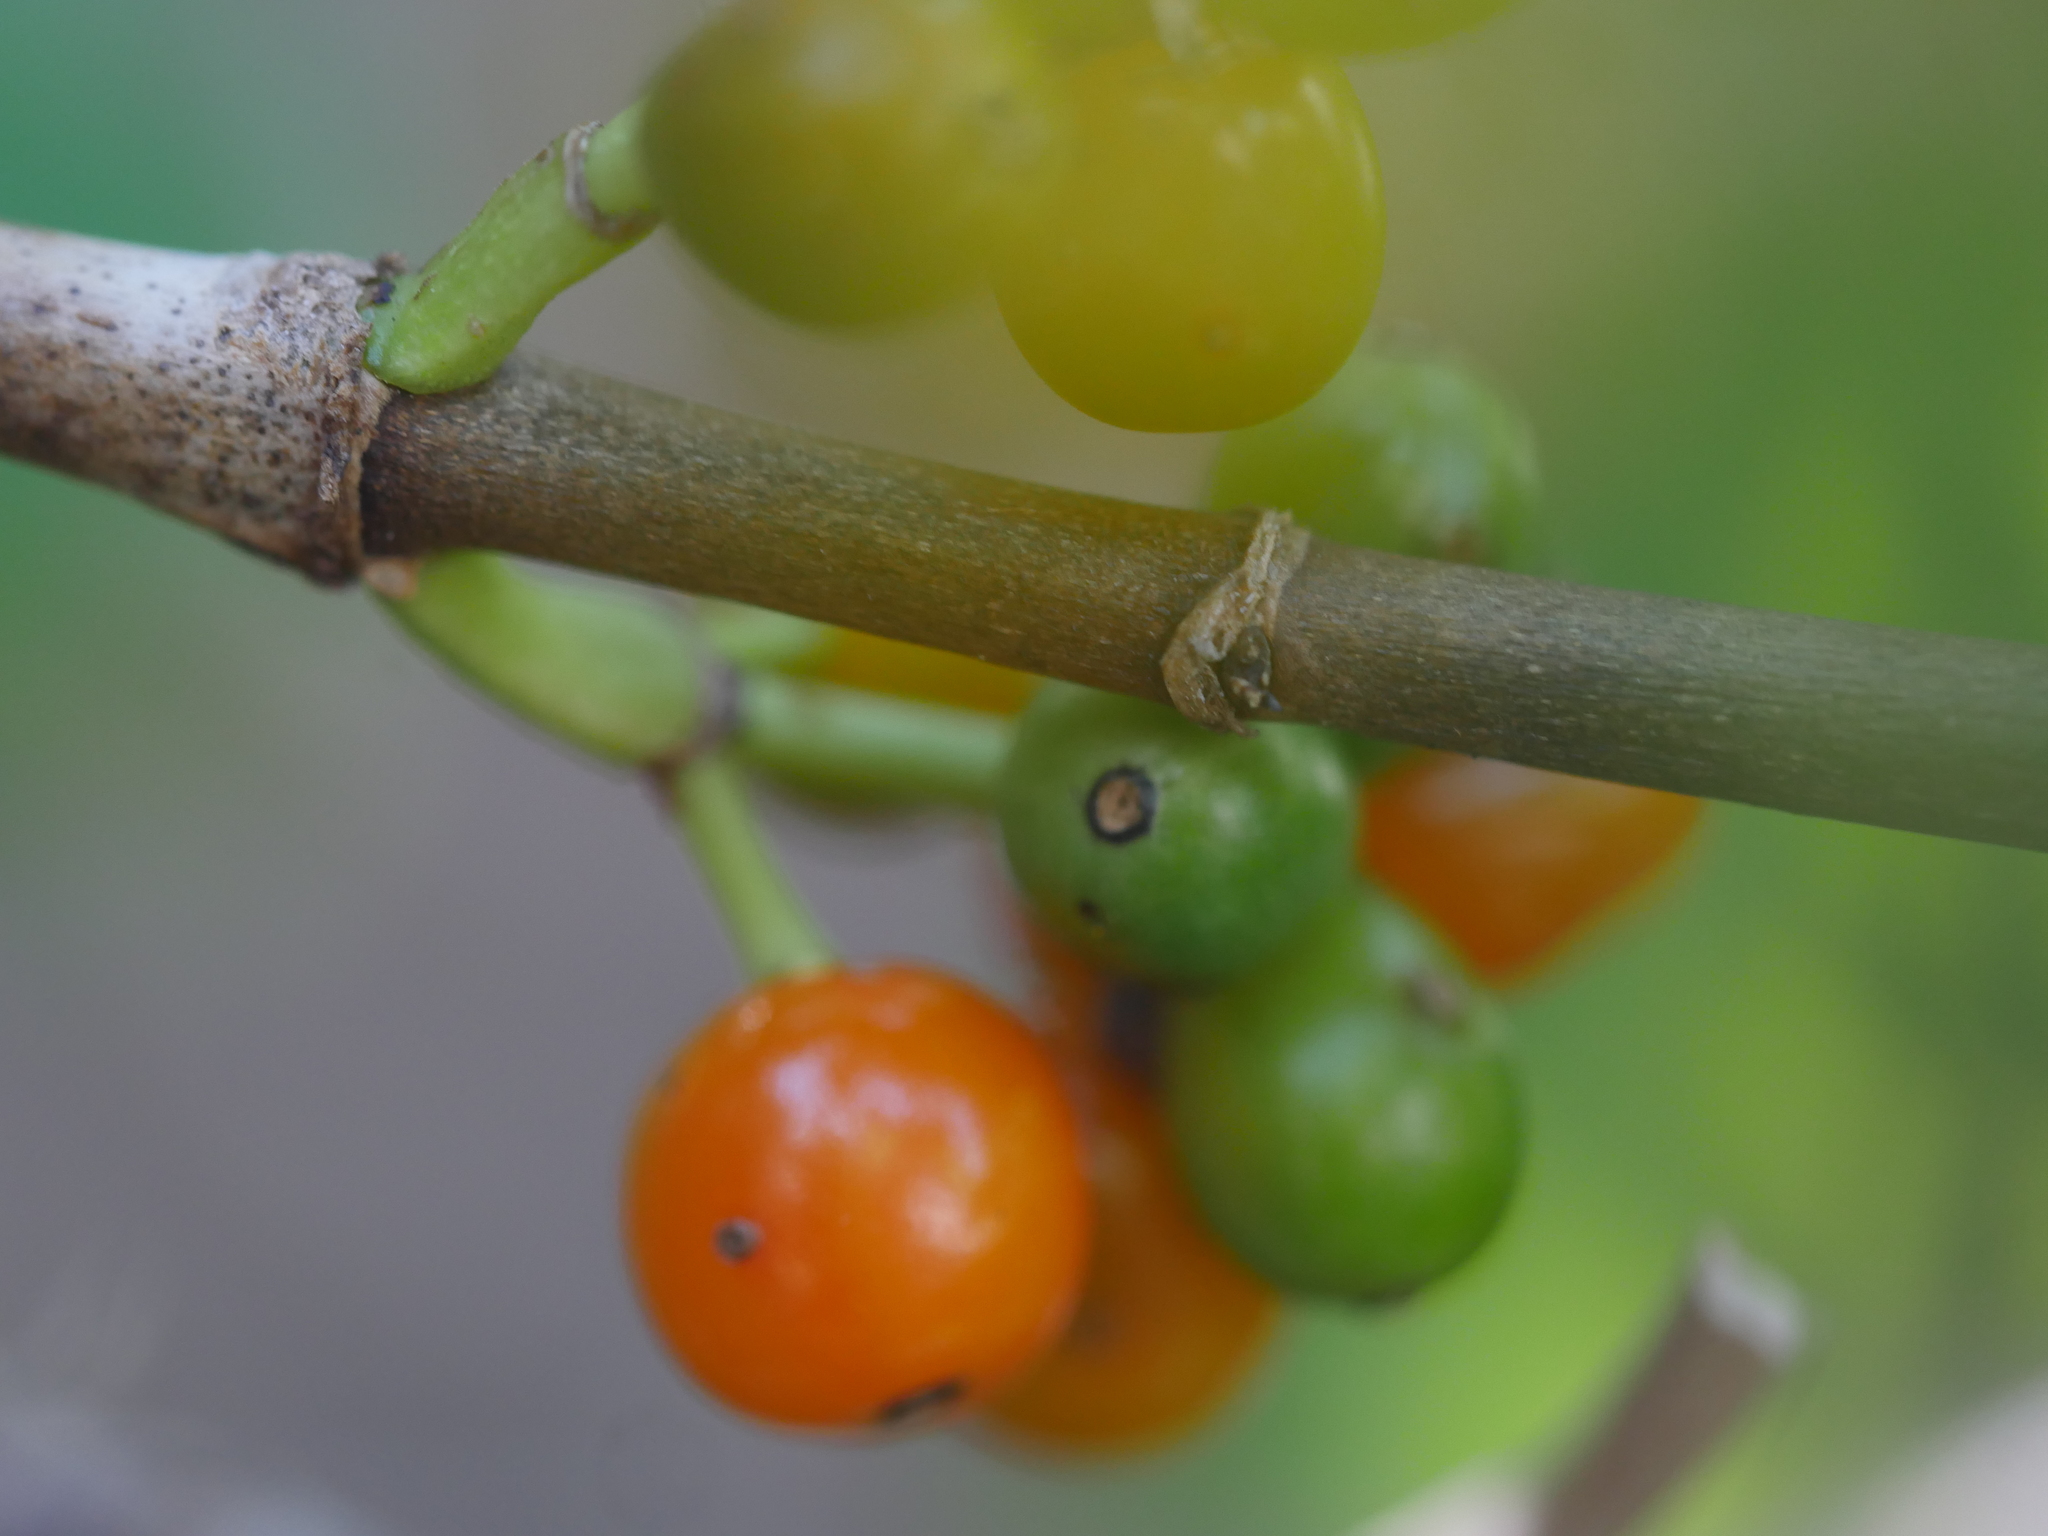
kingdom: Plantae
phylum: Tracheophyta
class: Magnoliopsida
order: Gentianales
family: Rubiaceae
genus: Coprosma
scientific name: Coprosma macrocarpa
